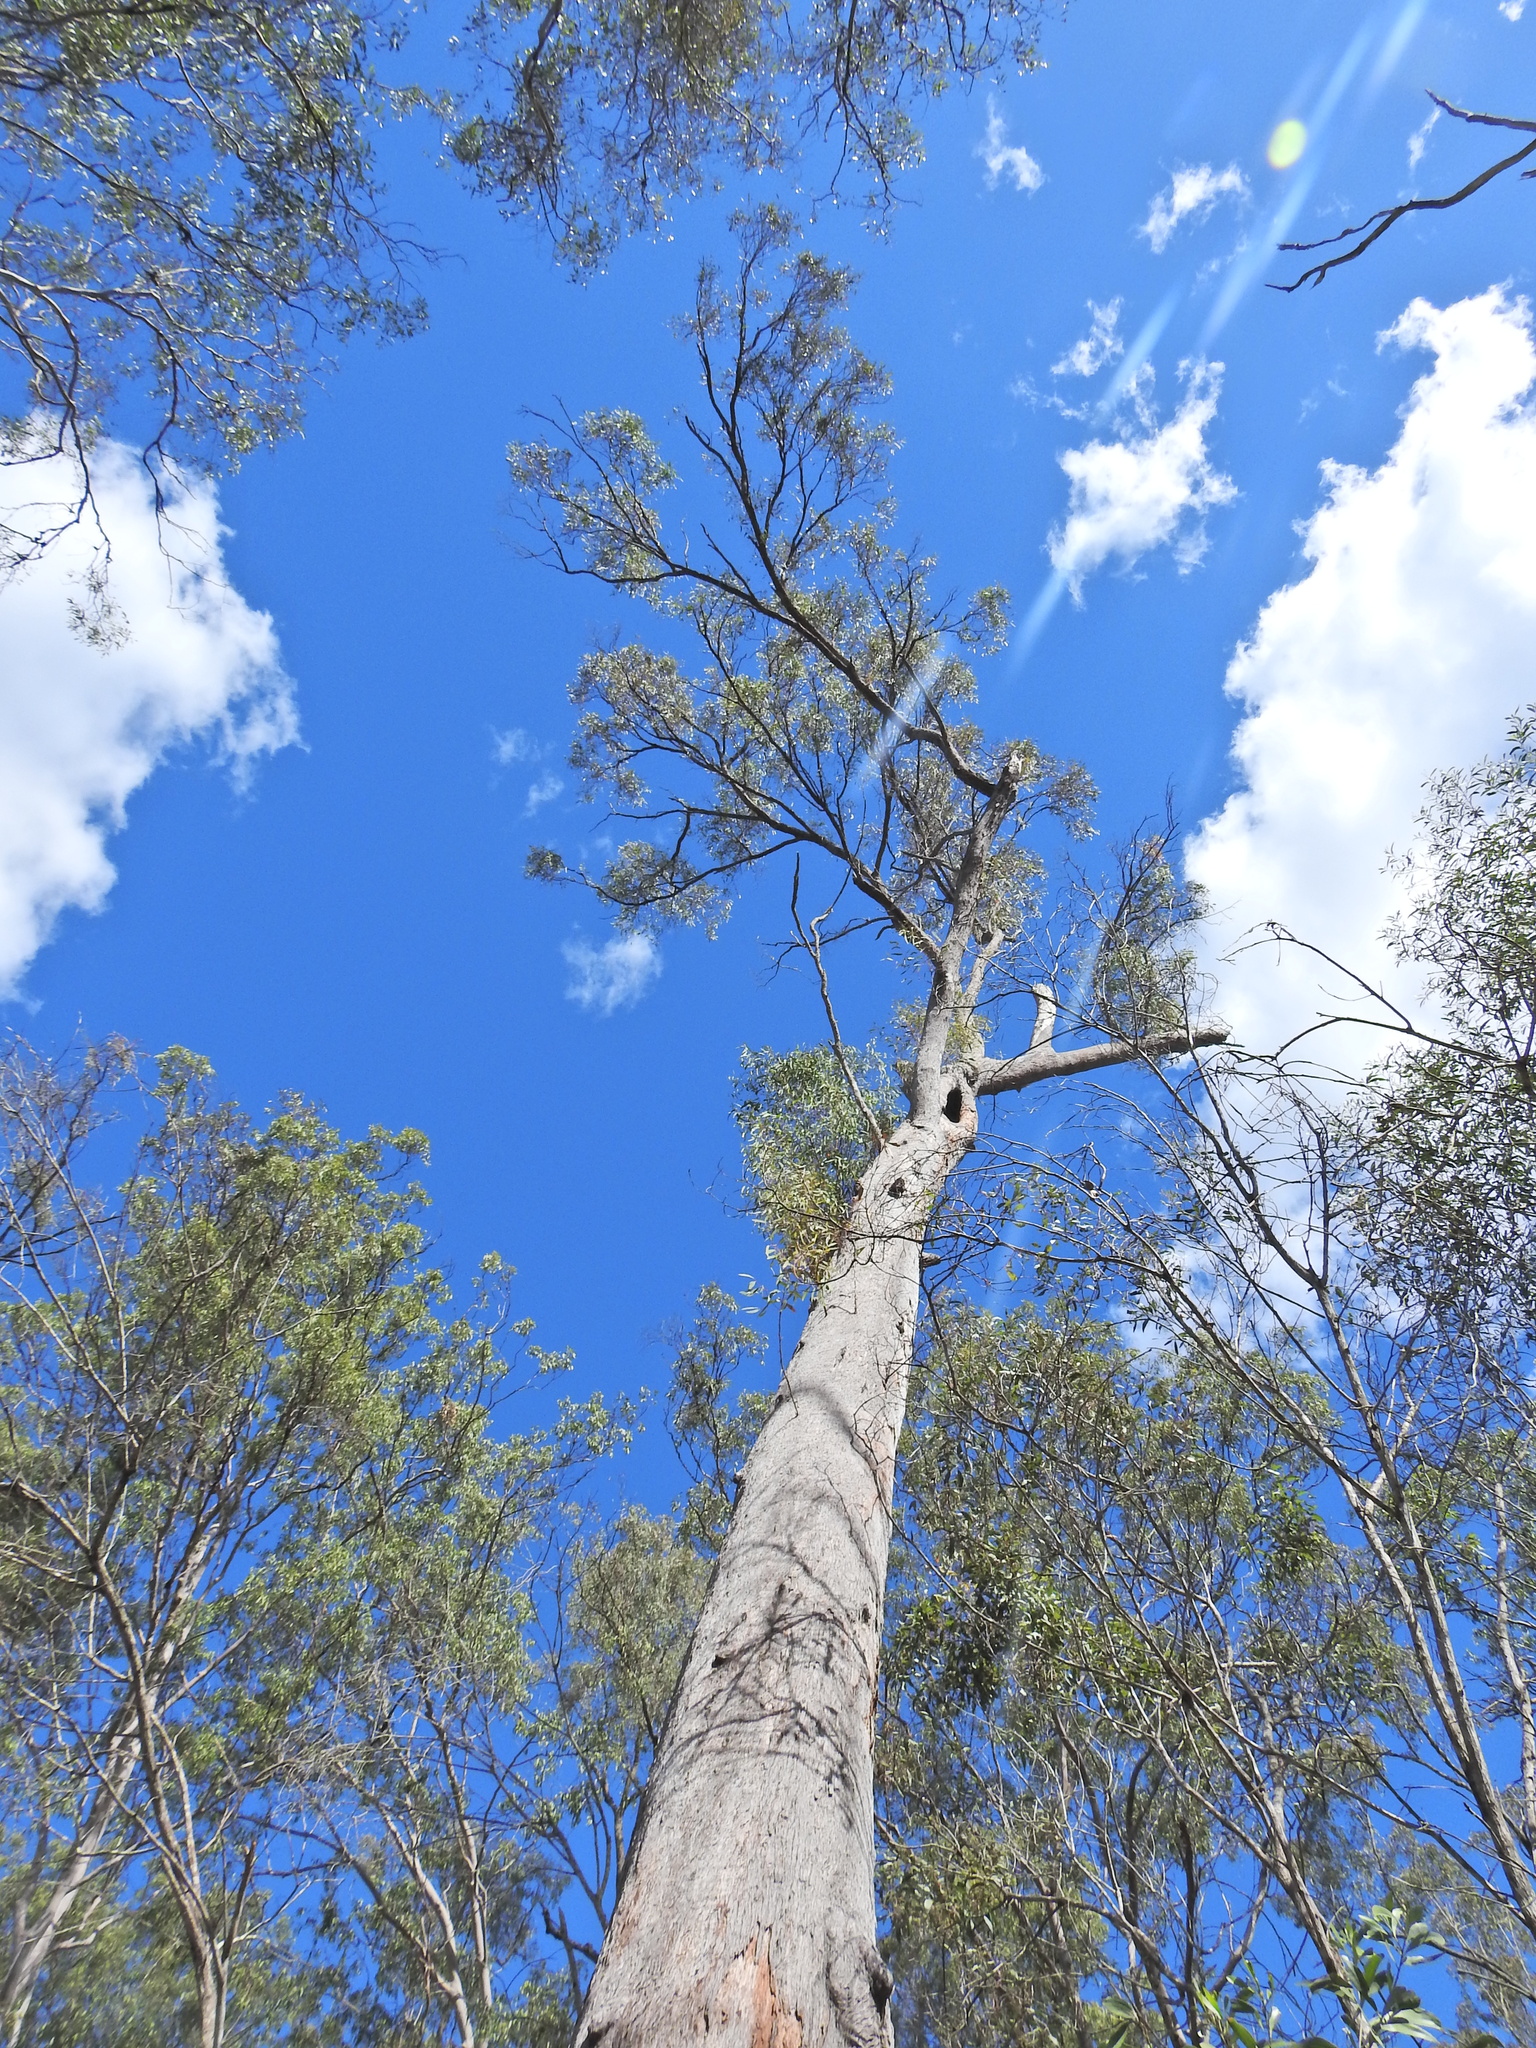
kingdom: Plantae
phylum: Tracheophyta
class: Magnoliopsida
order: Myrtales
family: Myrtaceae
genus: Eucalyptus
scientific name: Eucalyptus exserta
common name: Peppermint-bendo
